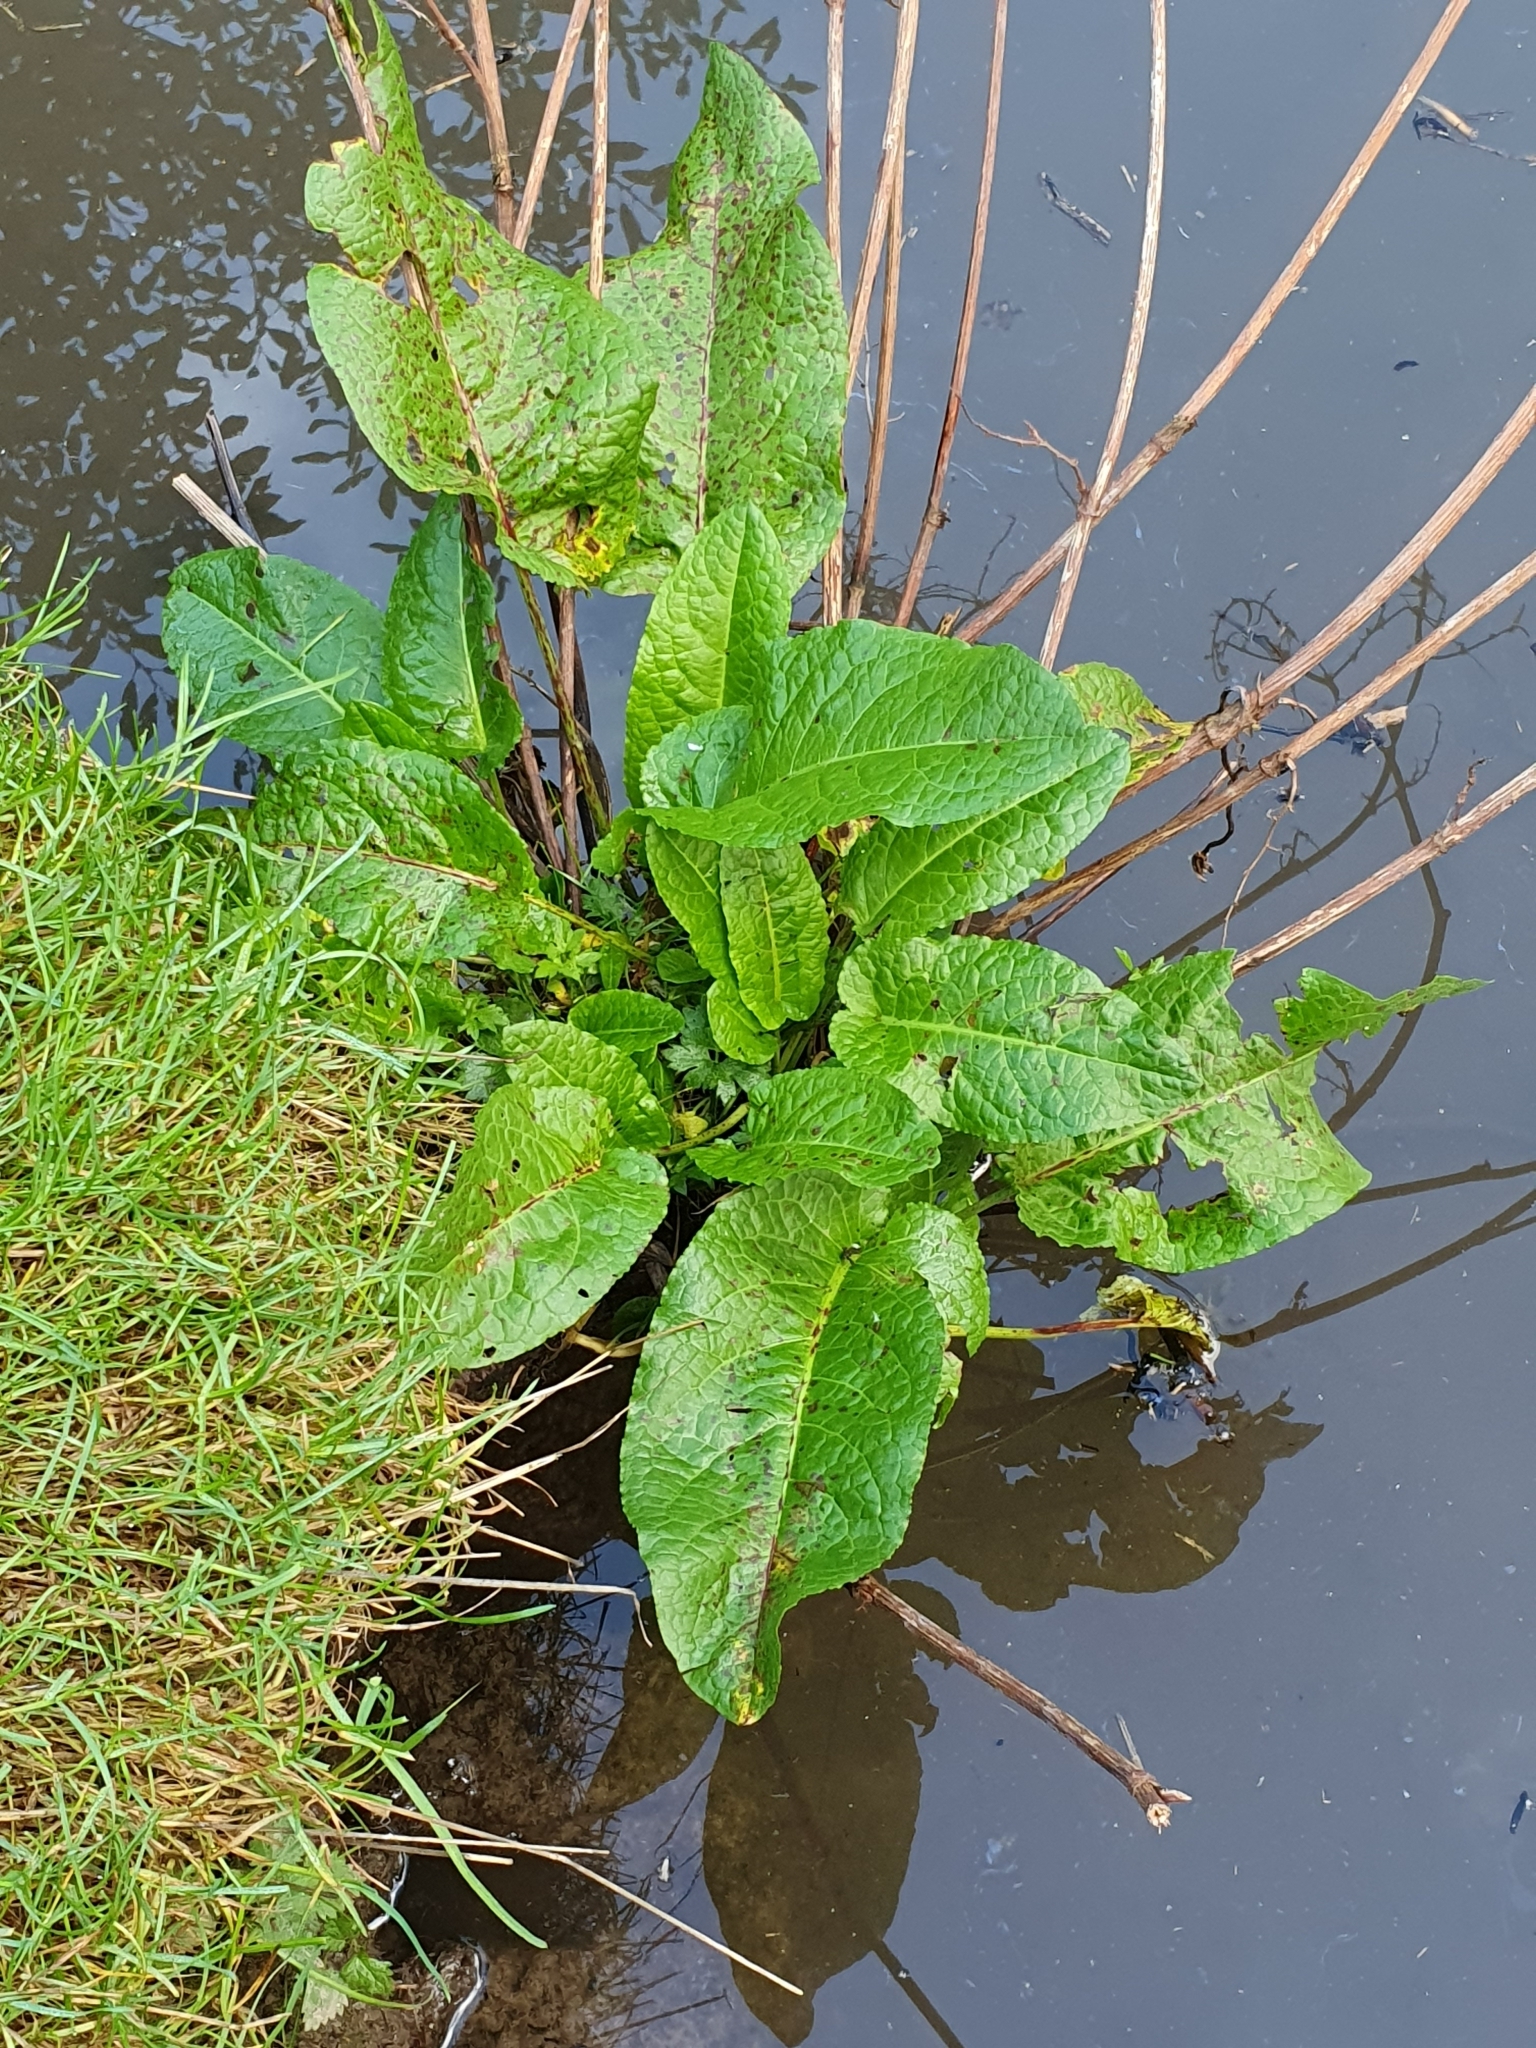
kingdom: Plantae
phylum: Tracheophyta
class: Magnoliopsida
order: Caryophyllales
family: Polygonaceae
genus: Rumex
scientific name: Rumex hydrolapathum
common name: Water dock
